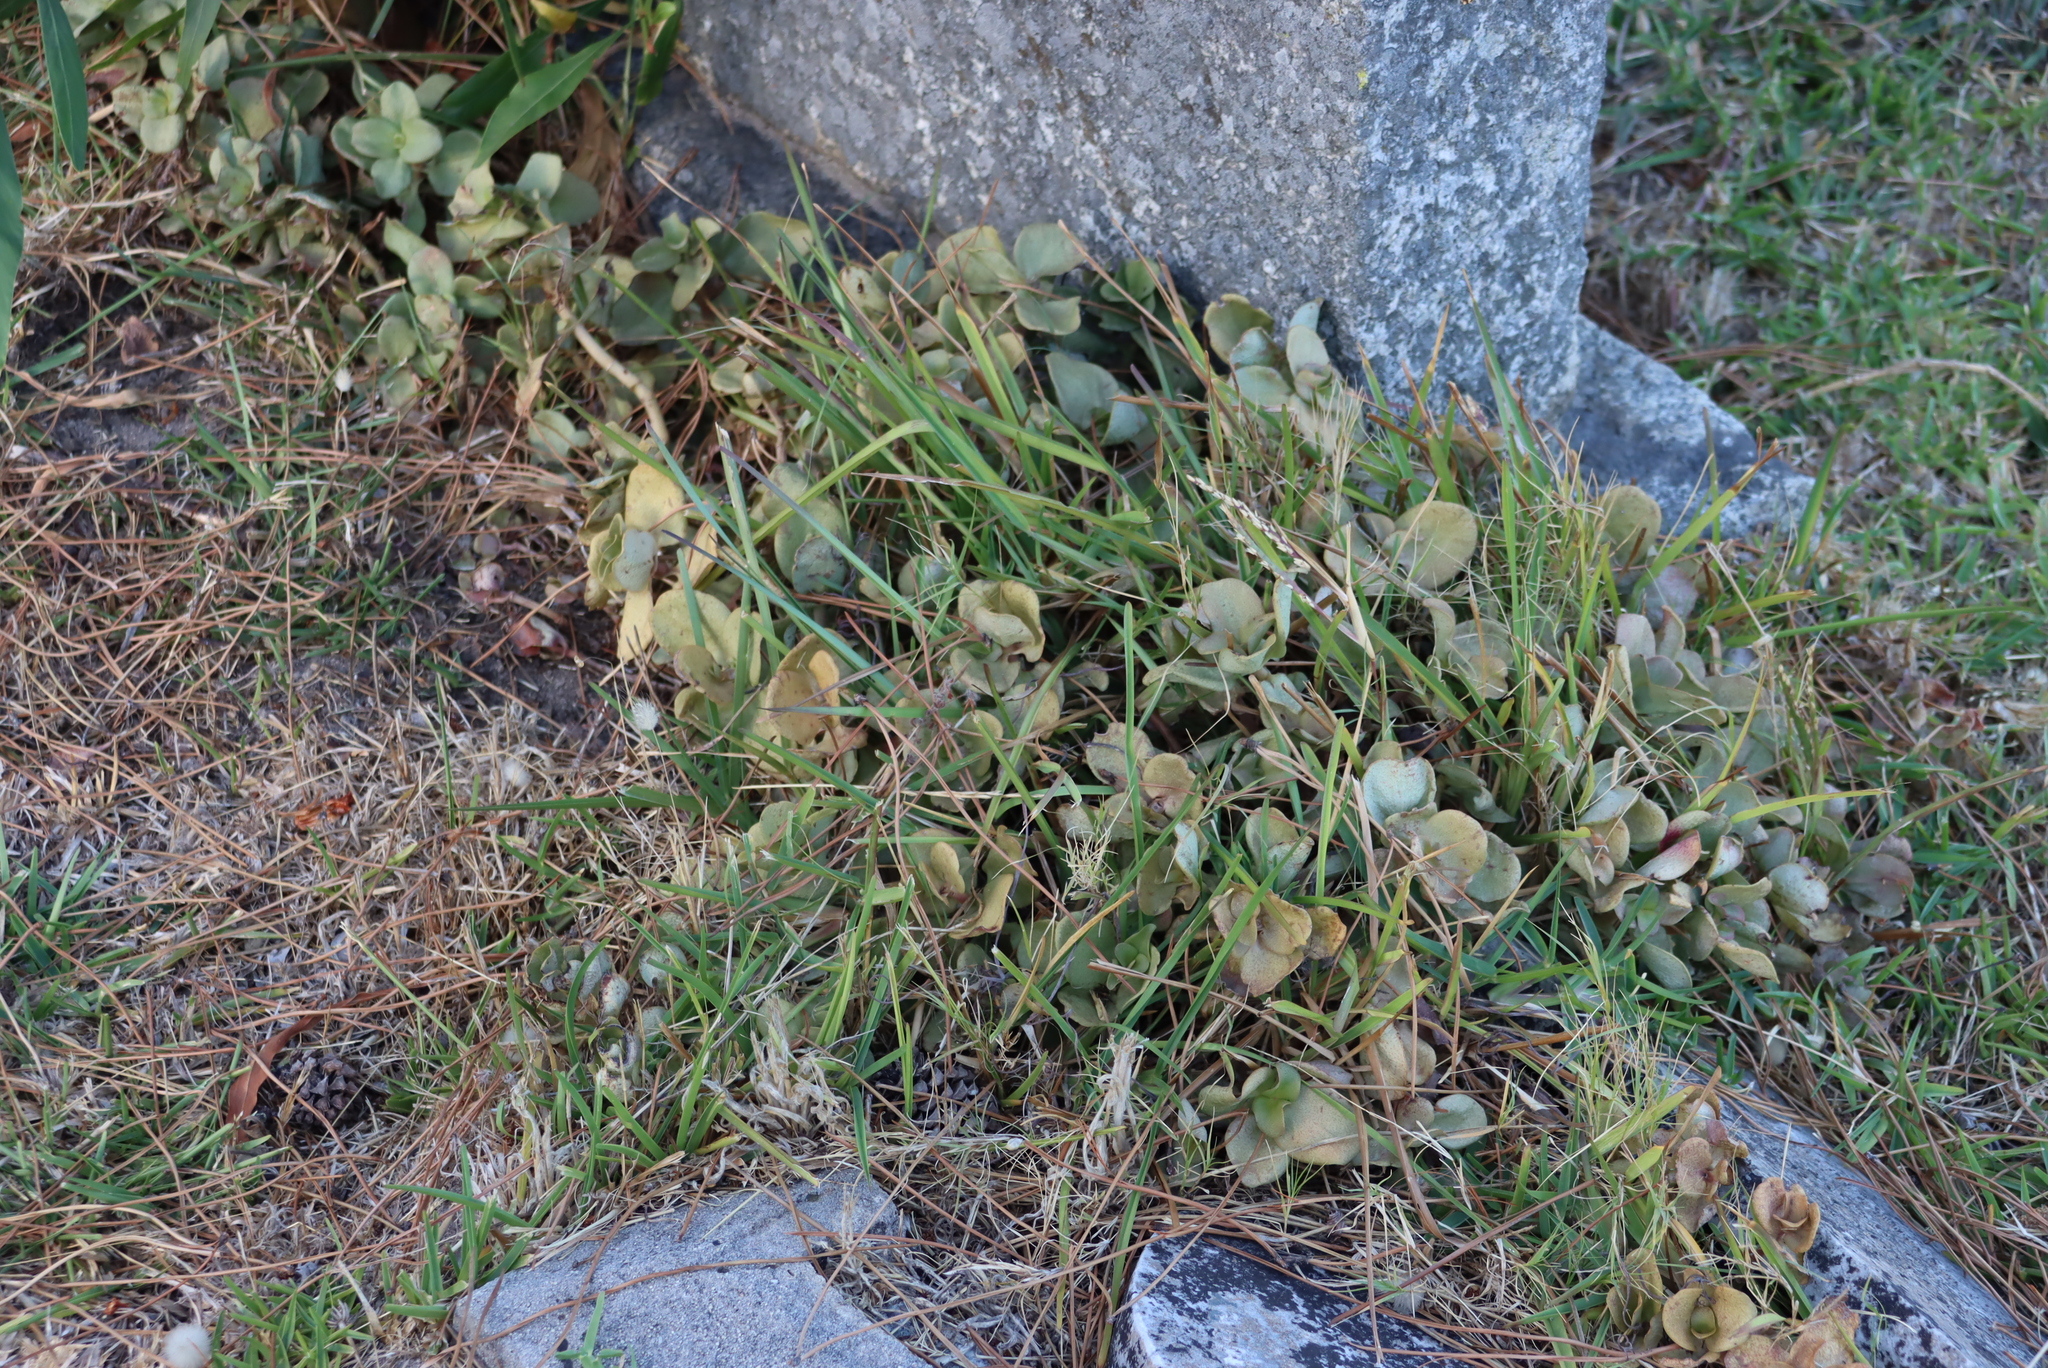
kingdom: Plantae
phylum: Tracheophyta
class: Magnoliopsida
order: Saxifragales
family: Crassulaceae
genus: Crassula
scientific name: Crassula multicava
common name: Cape province pygmyweed
